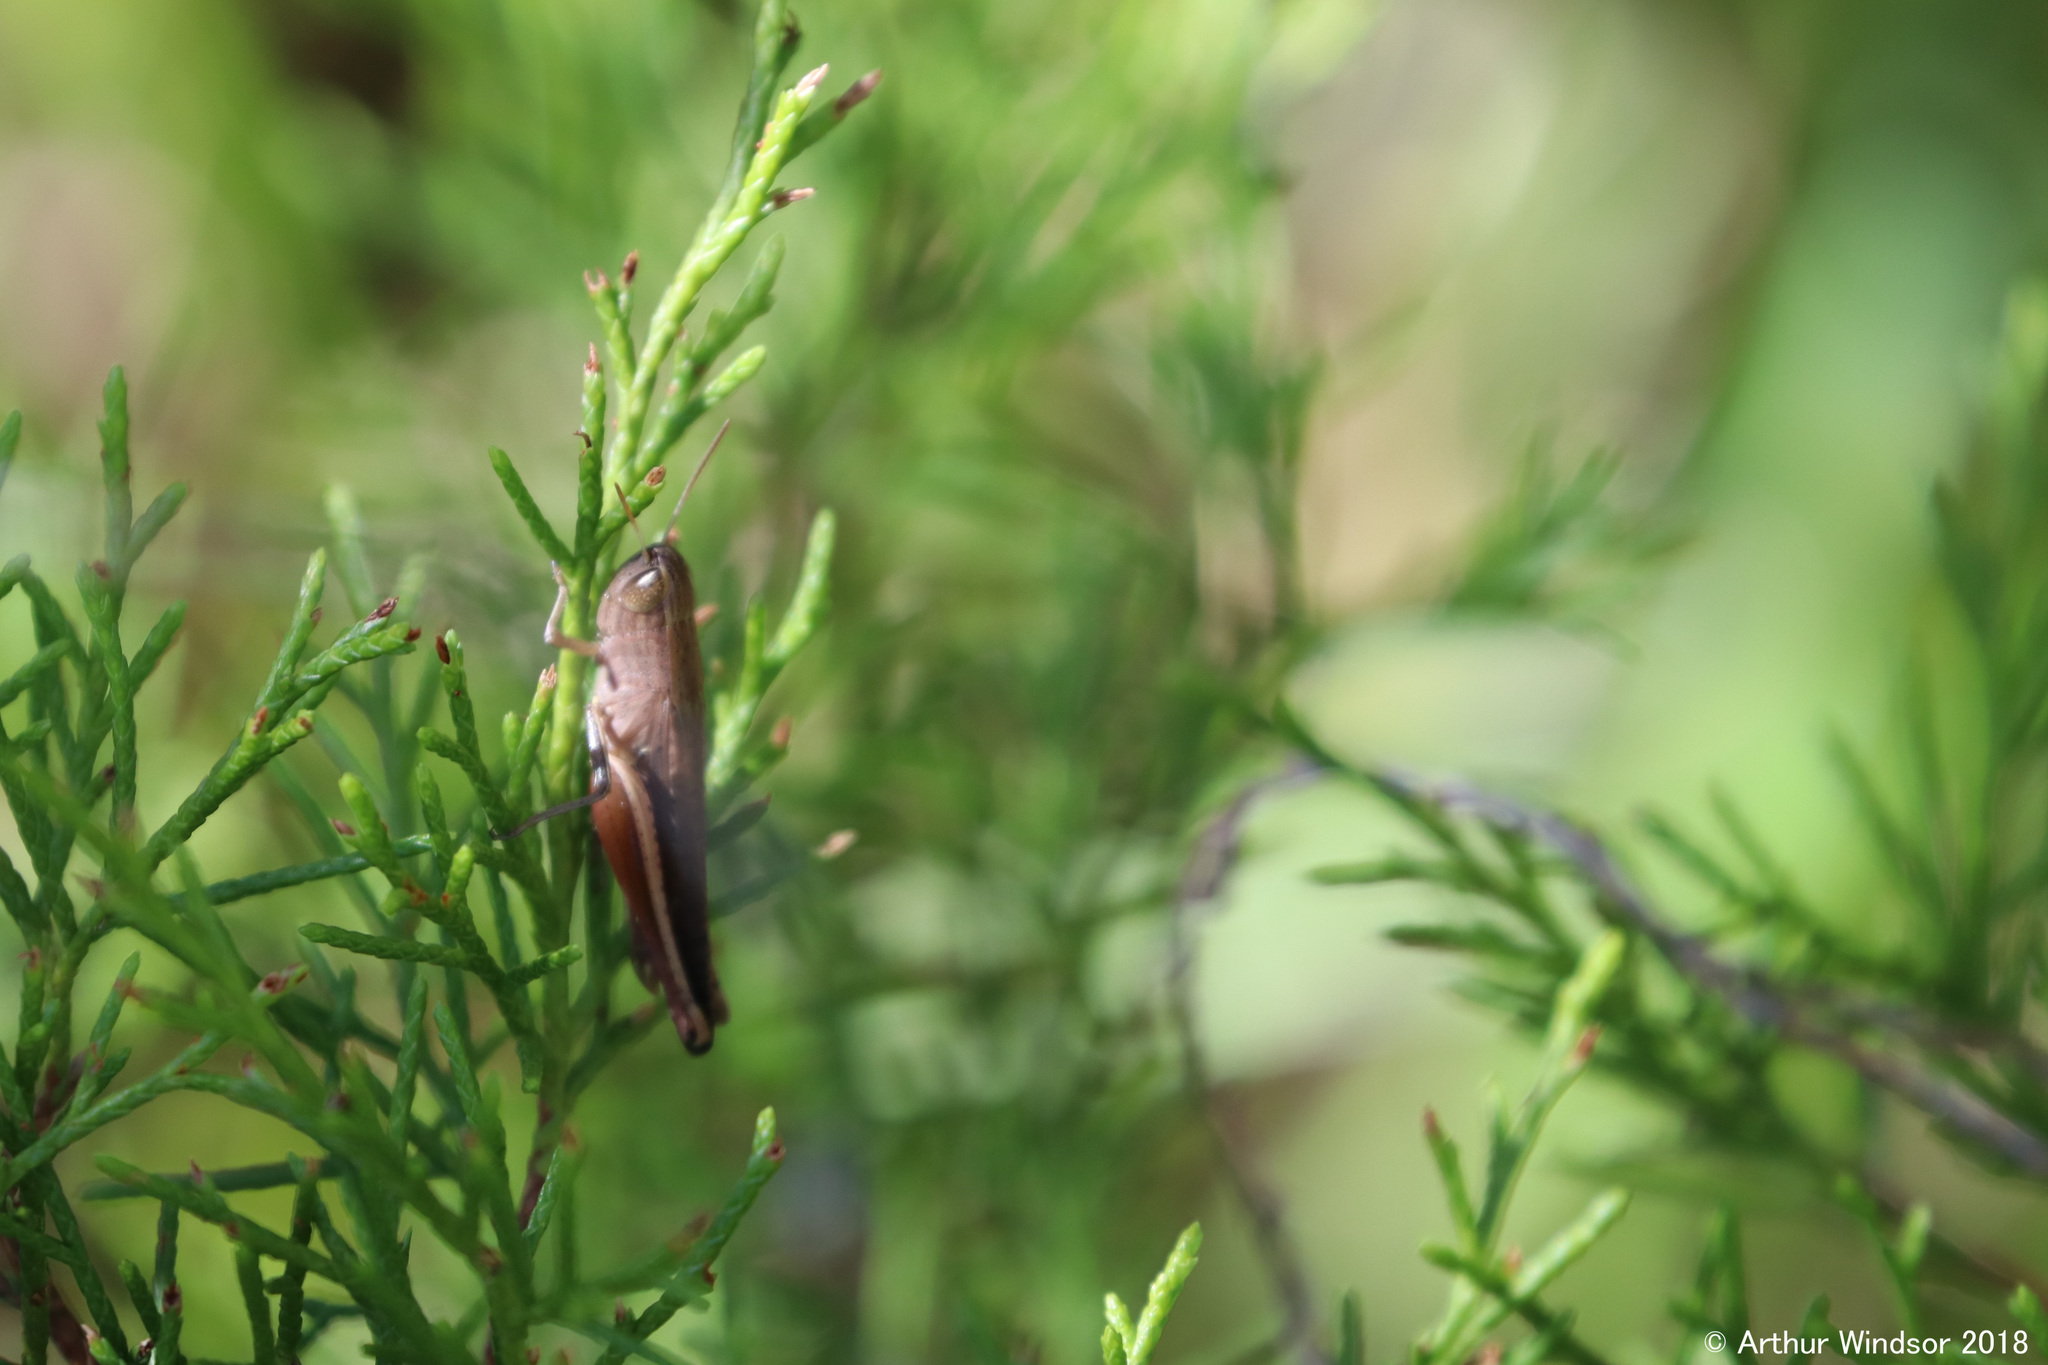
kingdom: Animalia
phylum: Arthropoda
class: Insecta
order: Orthoptera
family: Acrididae
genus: Amblytropidia
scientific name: Amblytropidia mysteca
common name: Brown winter grasshopper
